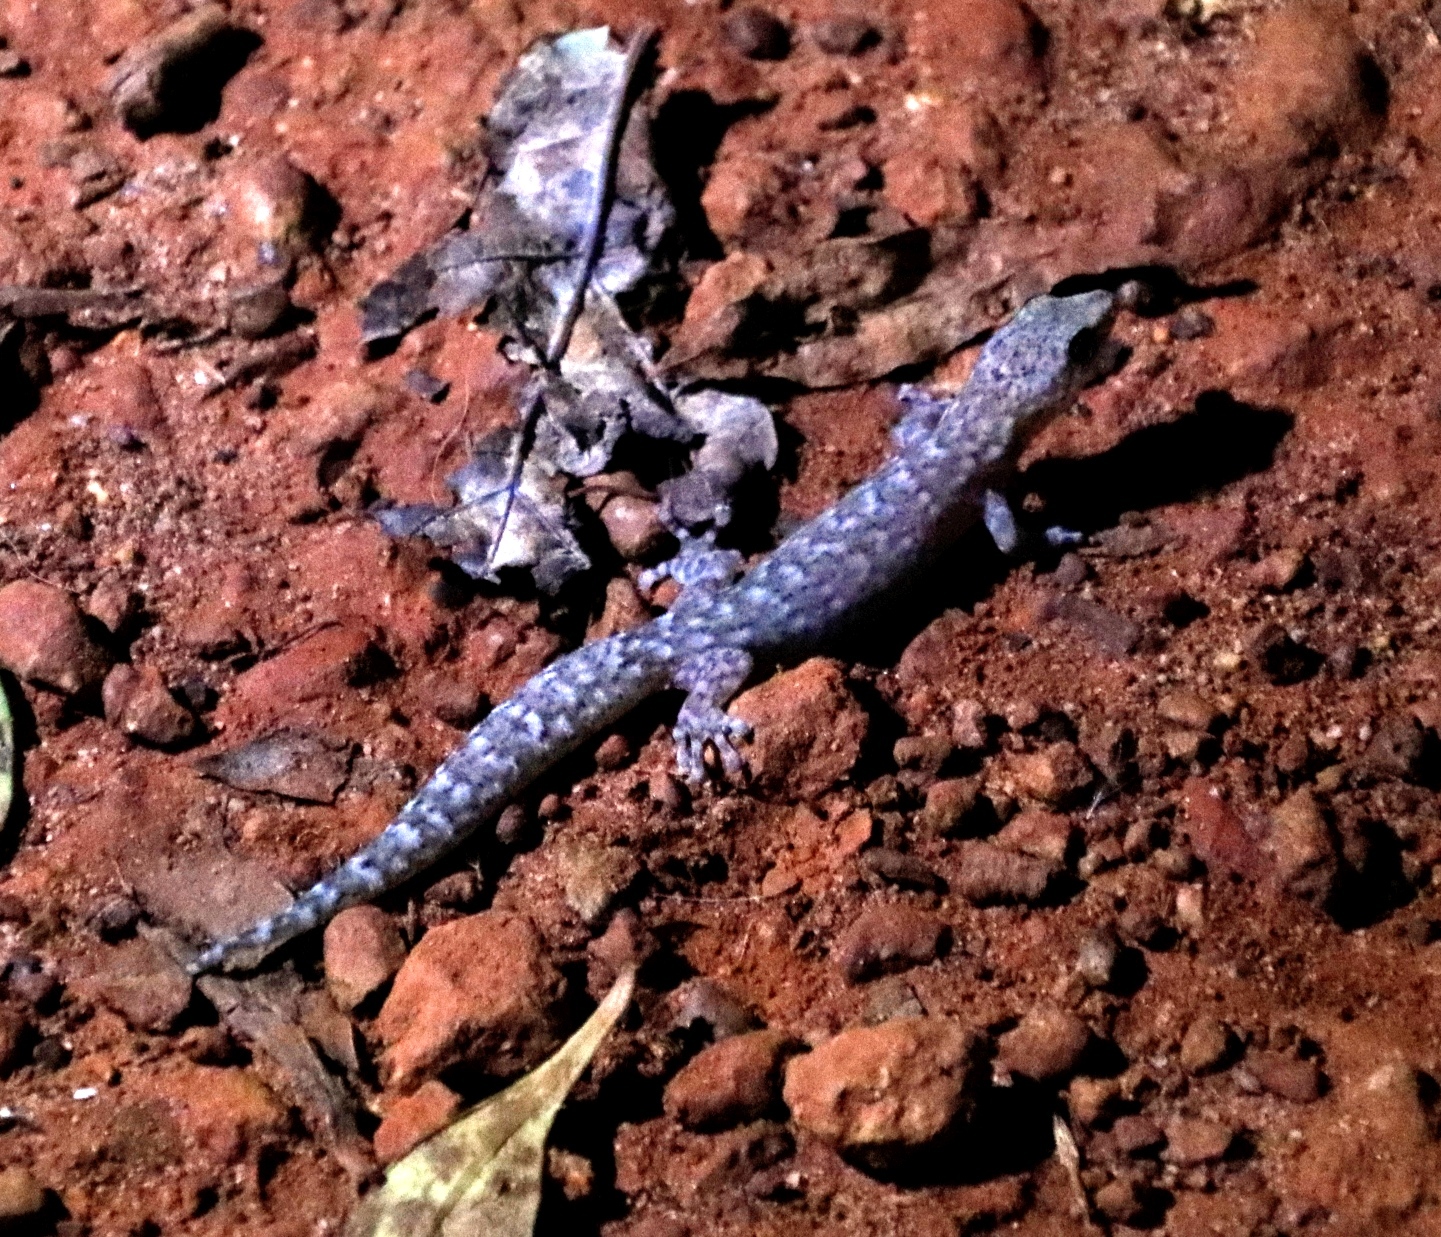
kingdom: Animalia
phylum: Chordata
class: Squamata
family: Gekkonidae
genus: Afrogecko
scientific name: Afrogecko porphyreus
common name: Marbled leaf-toed gecko
